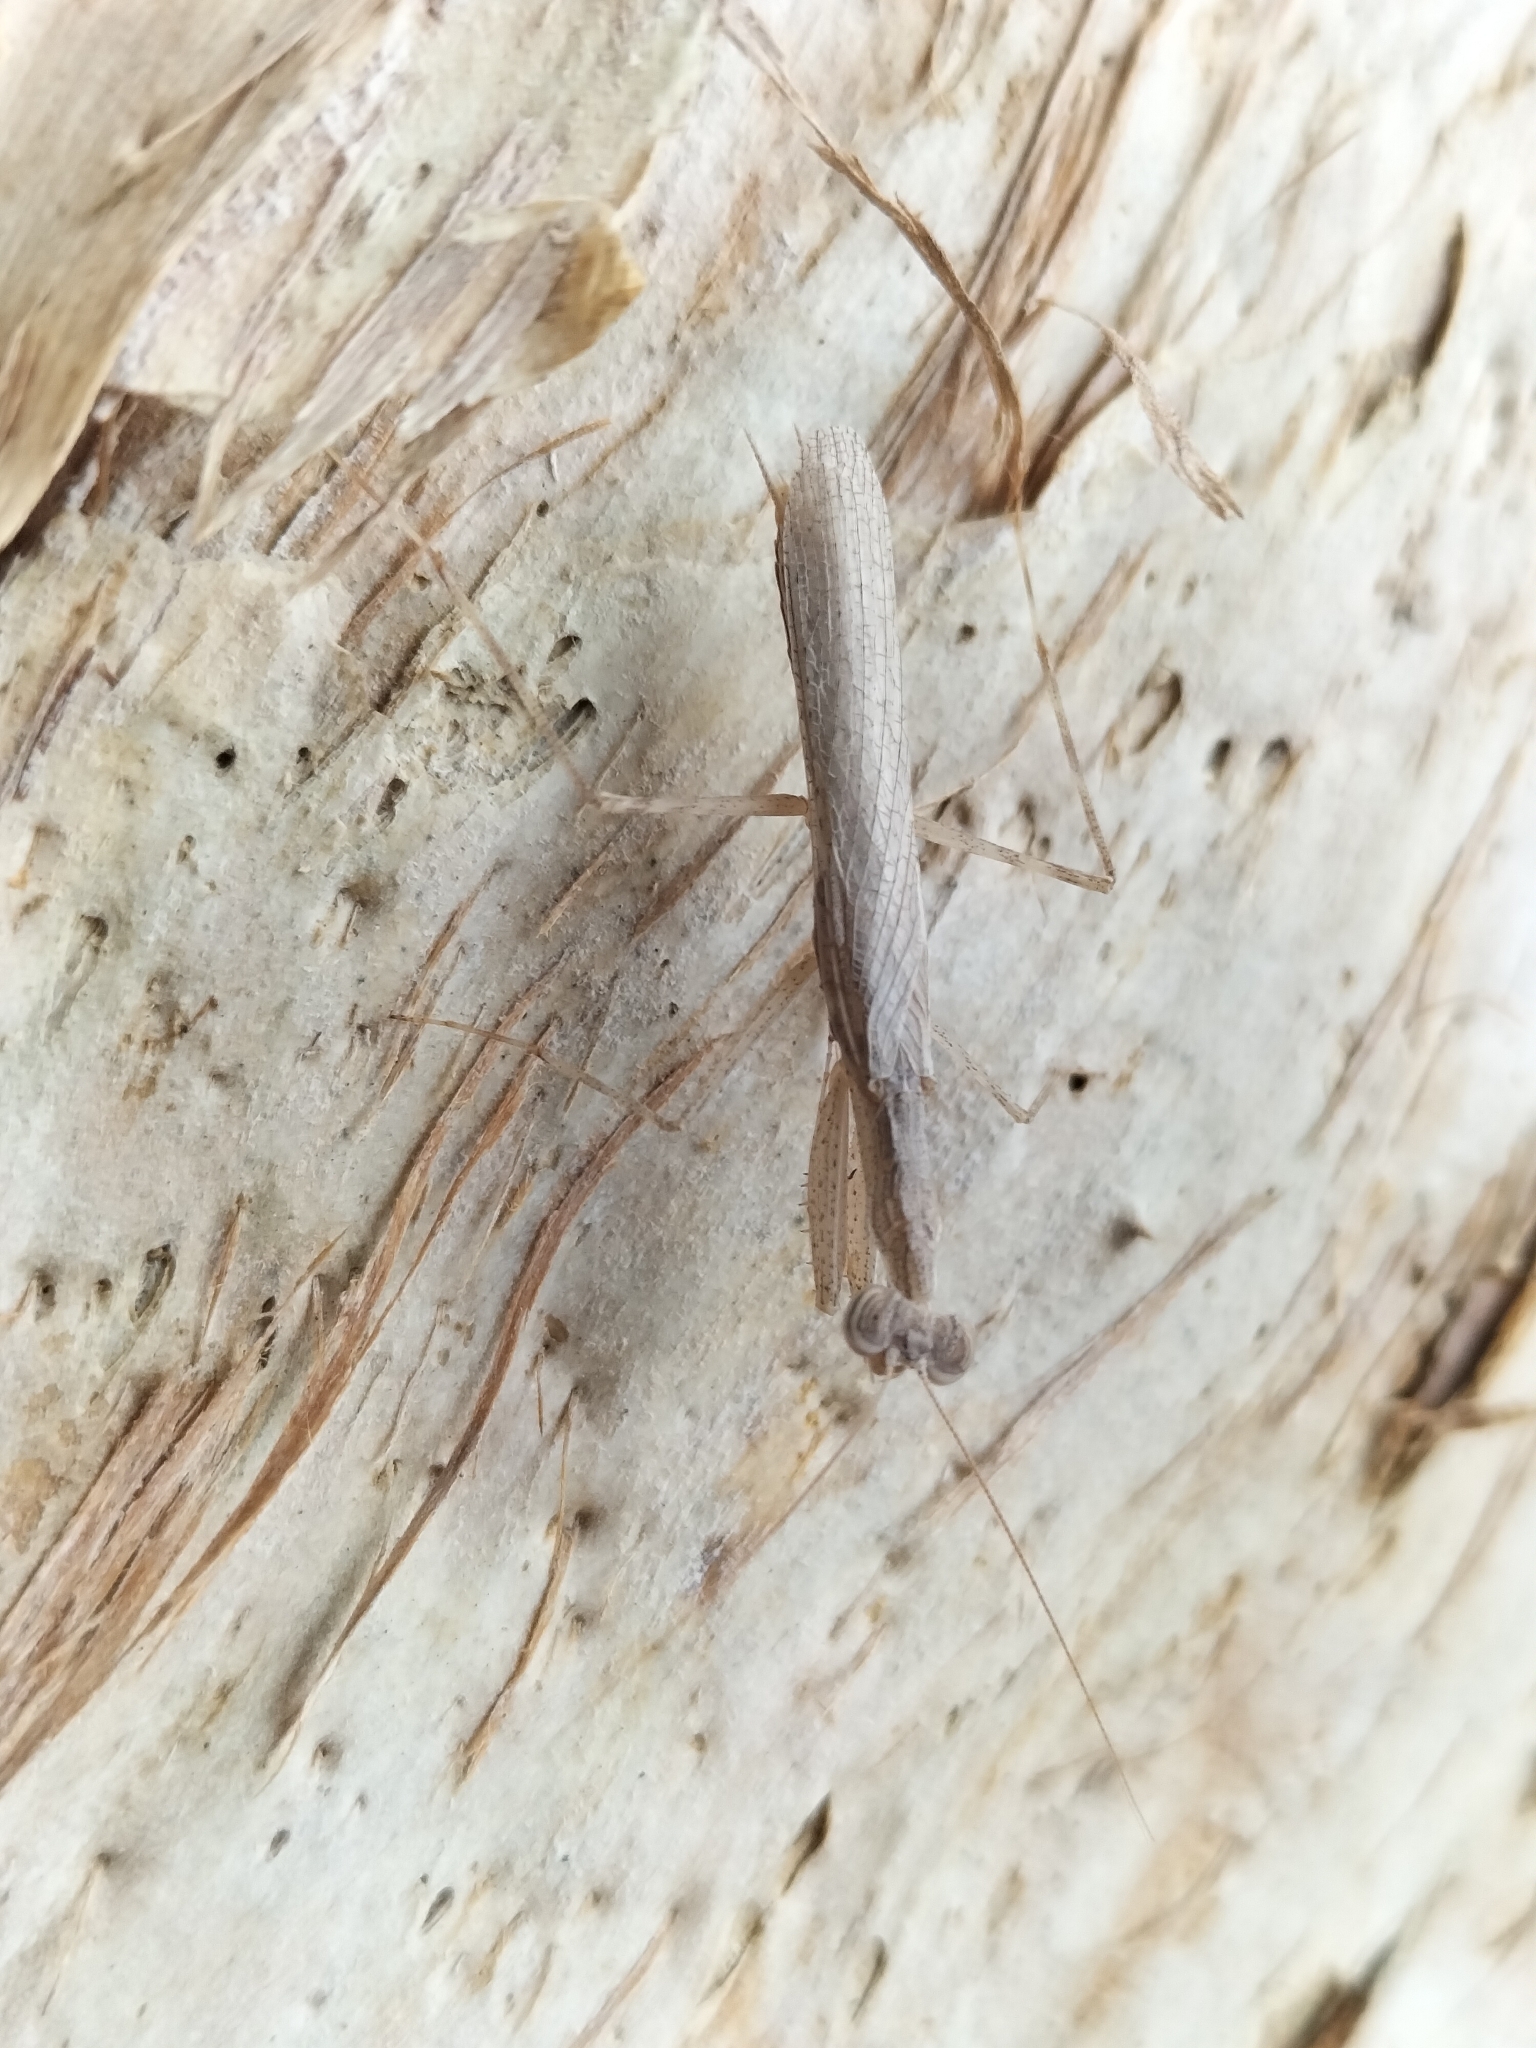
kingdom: Animalia
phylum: Arthropoda
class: Insecta
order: Mantodea
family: Nanomantidae
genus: Ima
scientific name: Ima fusca
